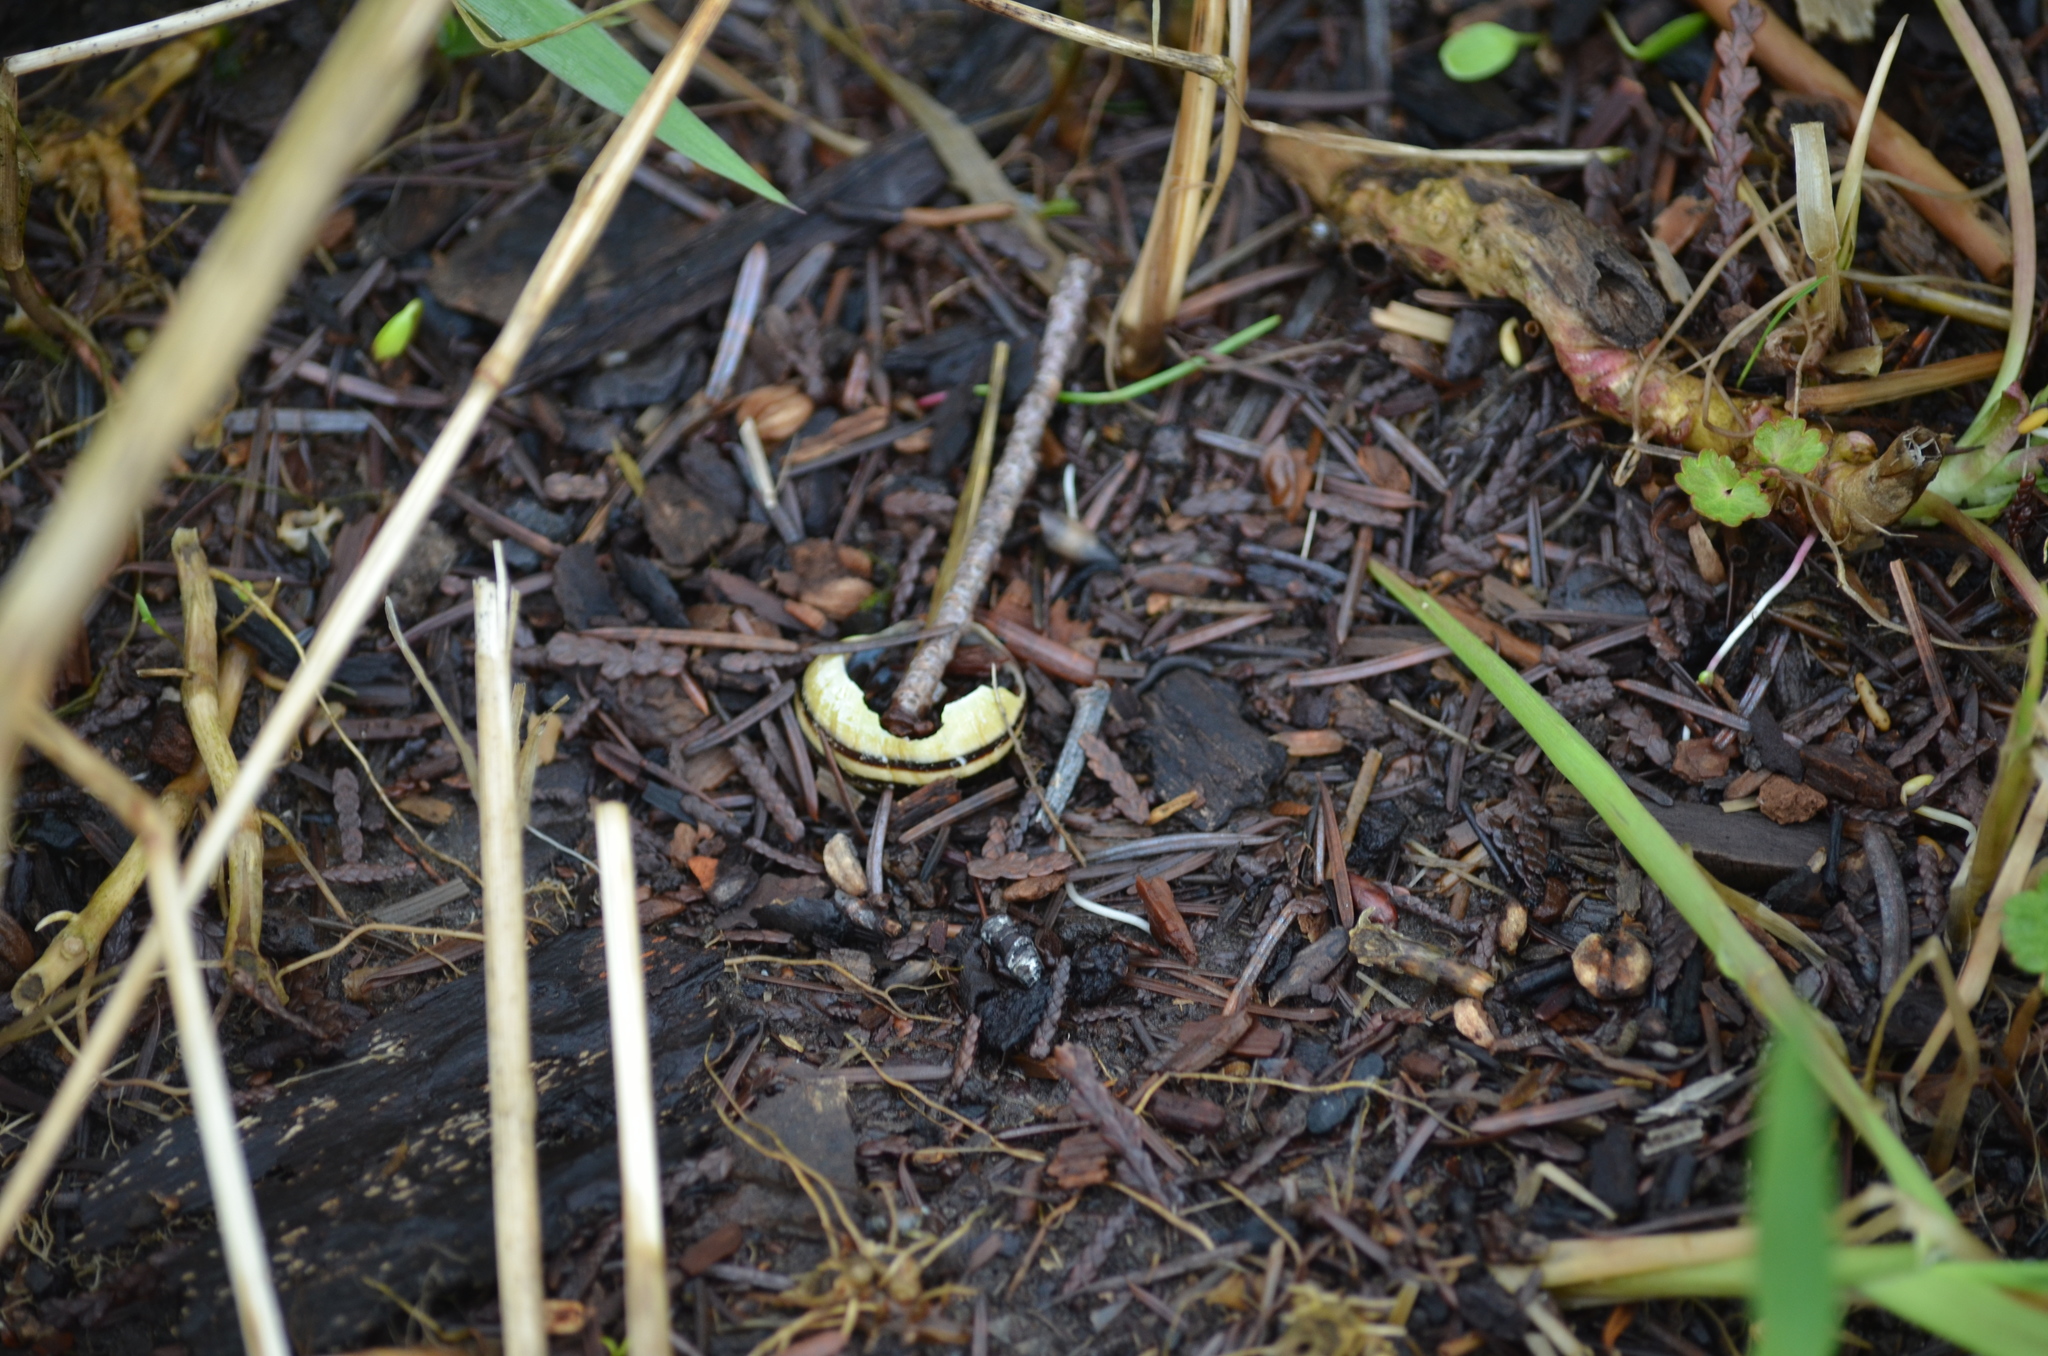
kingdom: Animalia
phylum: Mollusca
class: Gastropoda
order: Stylommatophora
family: Helicidae
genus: Cepaea
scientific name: Cepaea nemoralis
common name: Grovesnail
